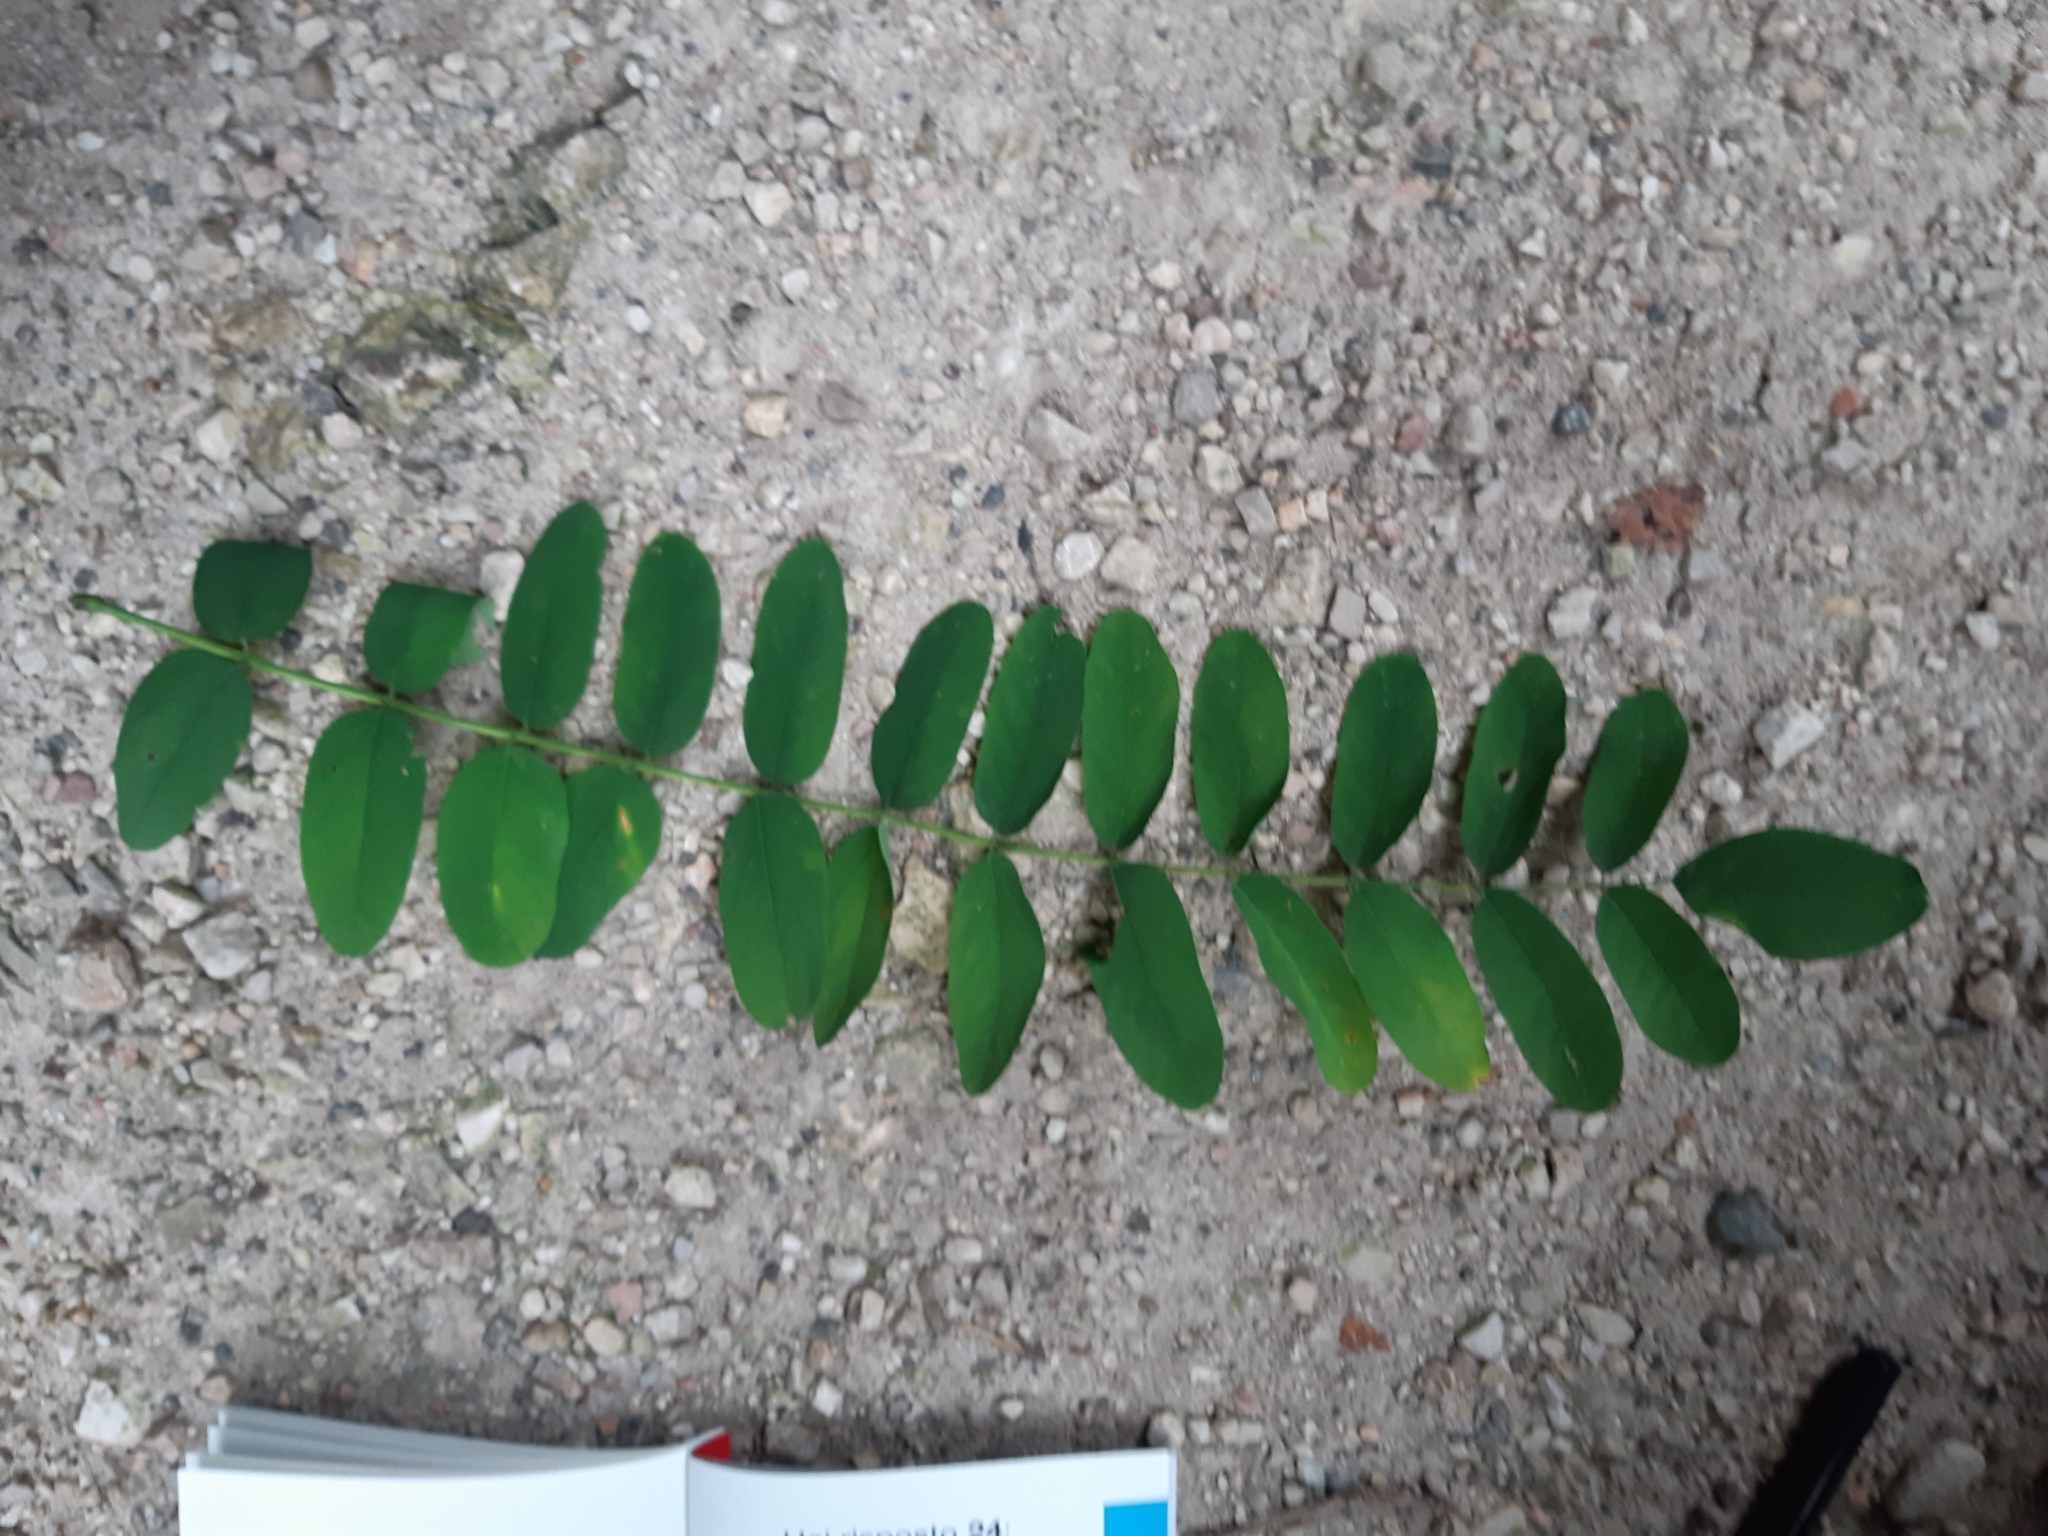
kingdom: Plantae
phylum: Tracheophyta
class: Magnoliopsida
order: Fabales
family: Fabaceae
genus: Robinia
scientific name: Robinia pseudoacacia
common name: Black locust
